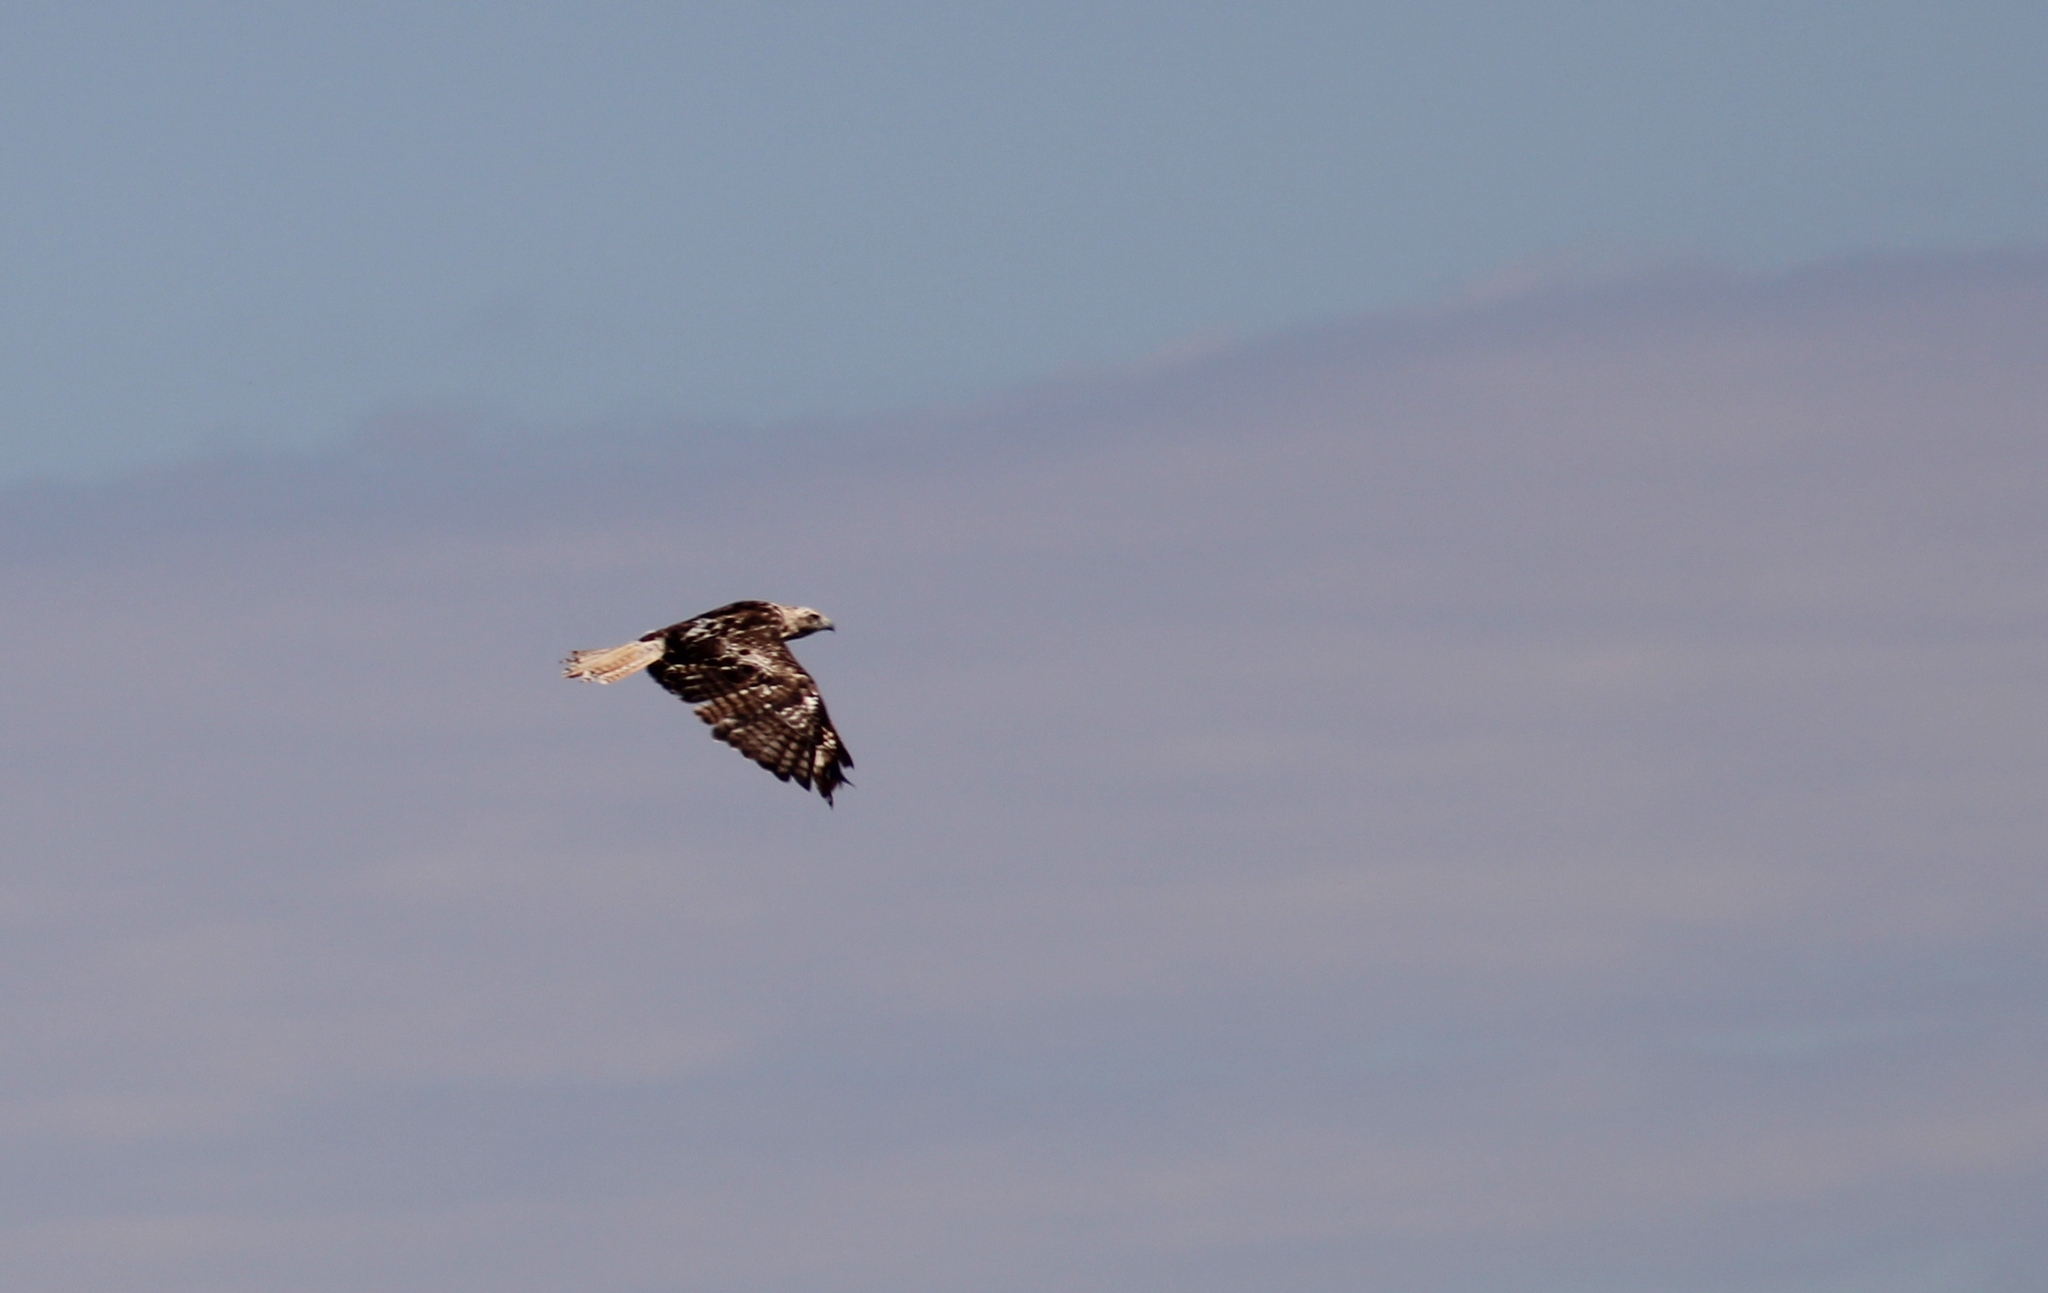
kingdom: Animalia
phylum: Chordata
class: Aves
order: Accipitriformes
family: Accipitridae
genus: Buteo
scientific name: Buteo jamaicensis
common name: Red-tailed hawk
